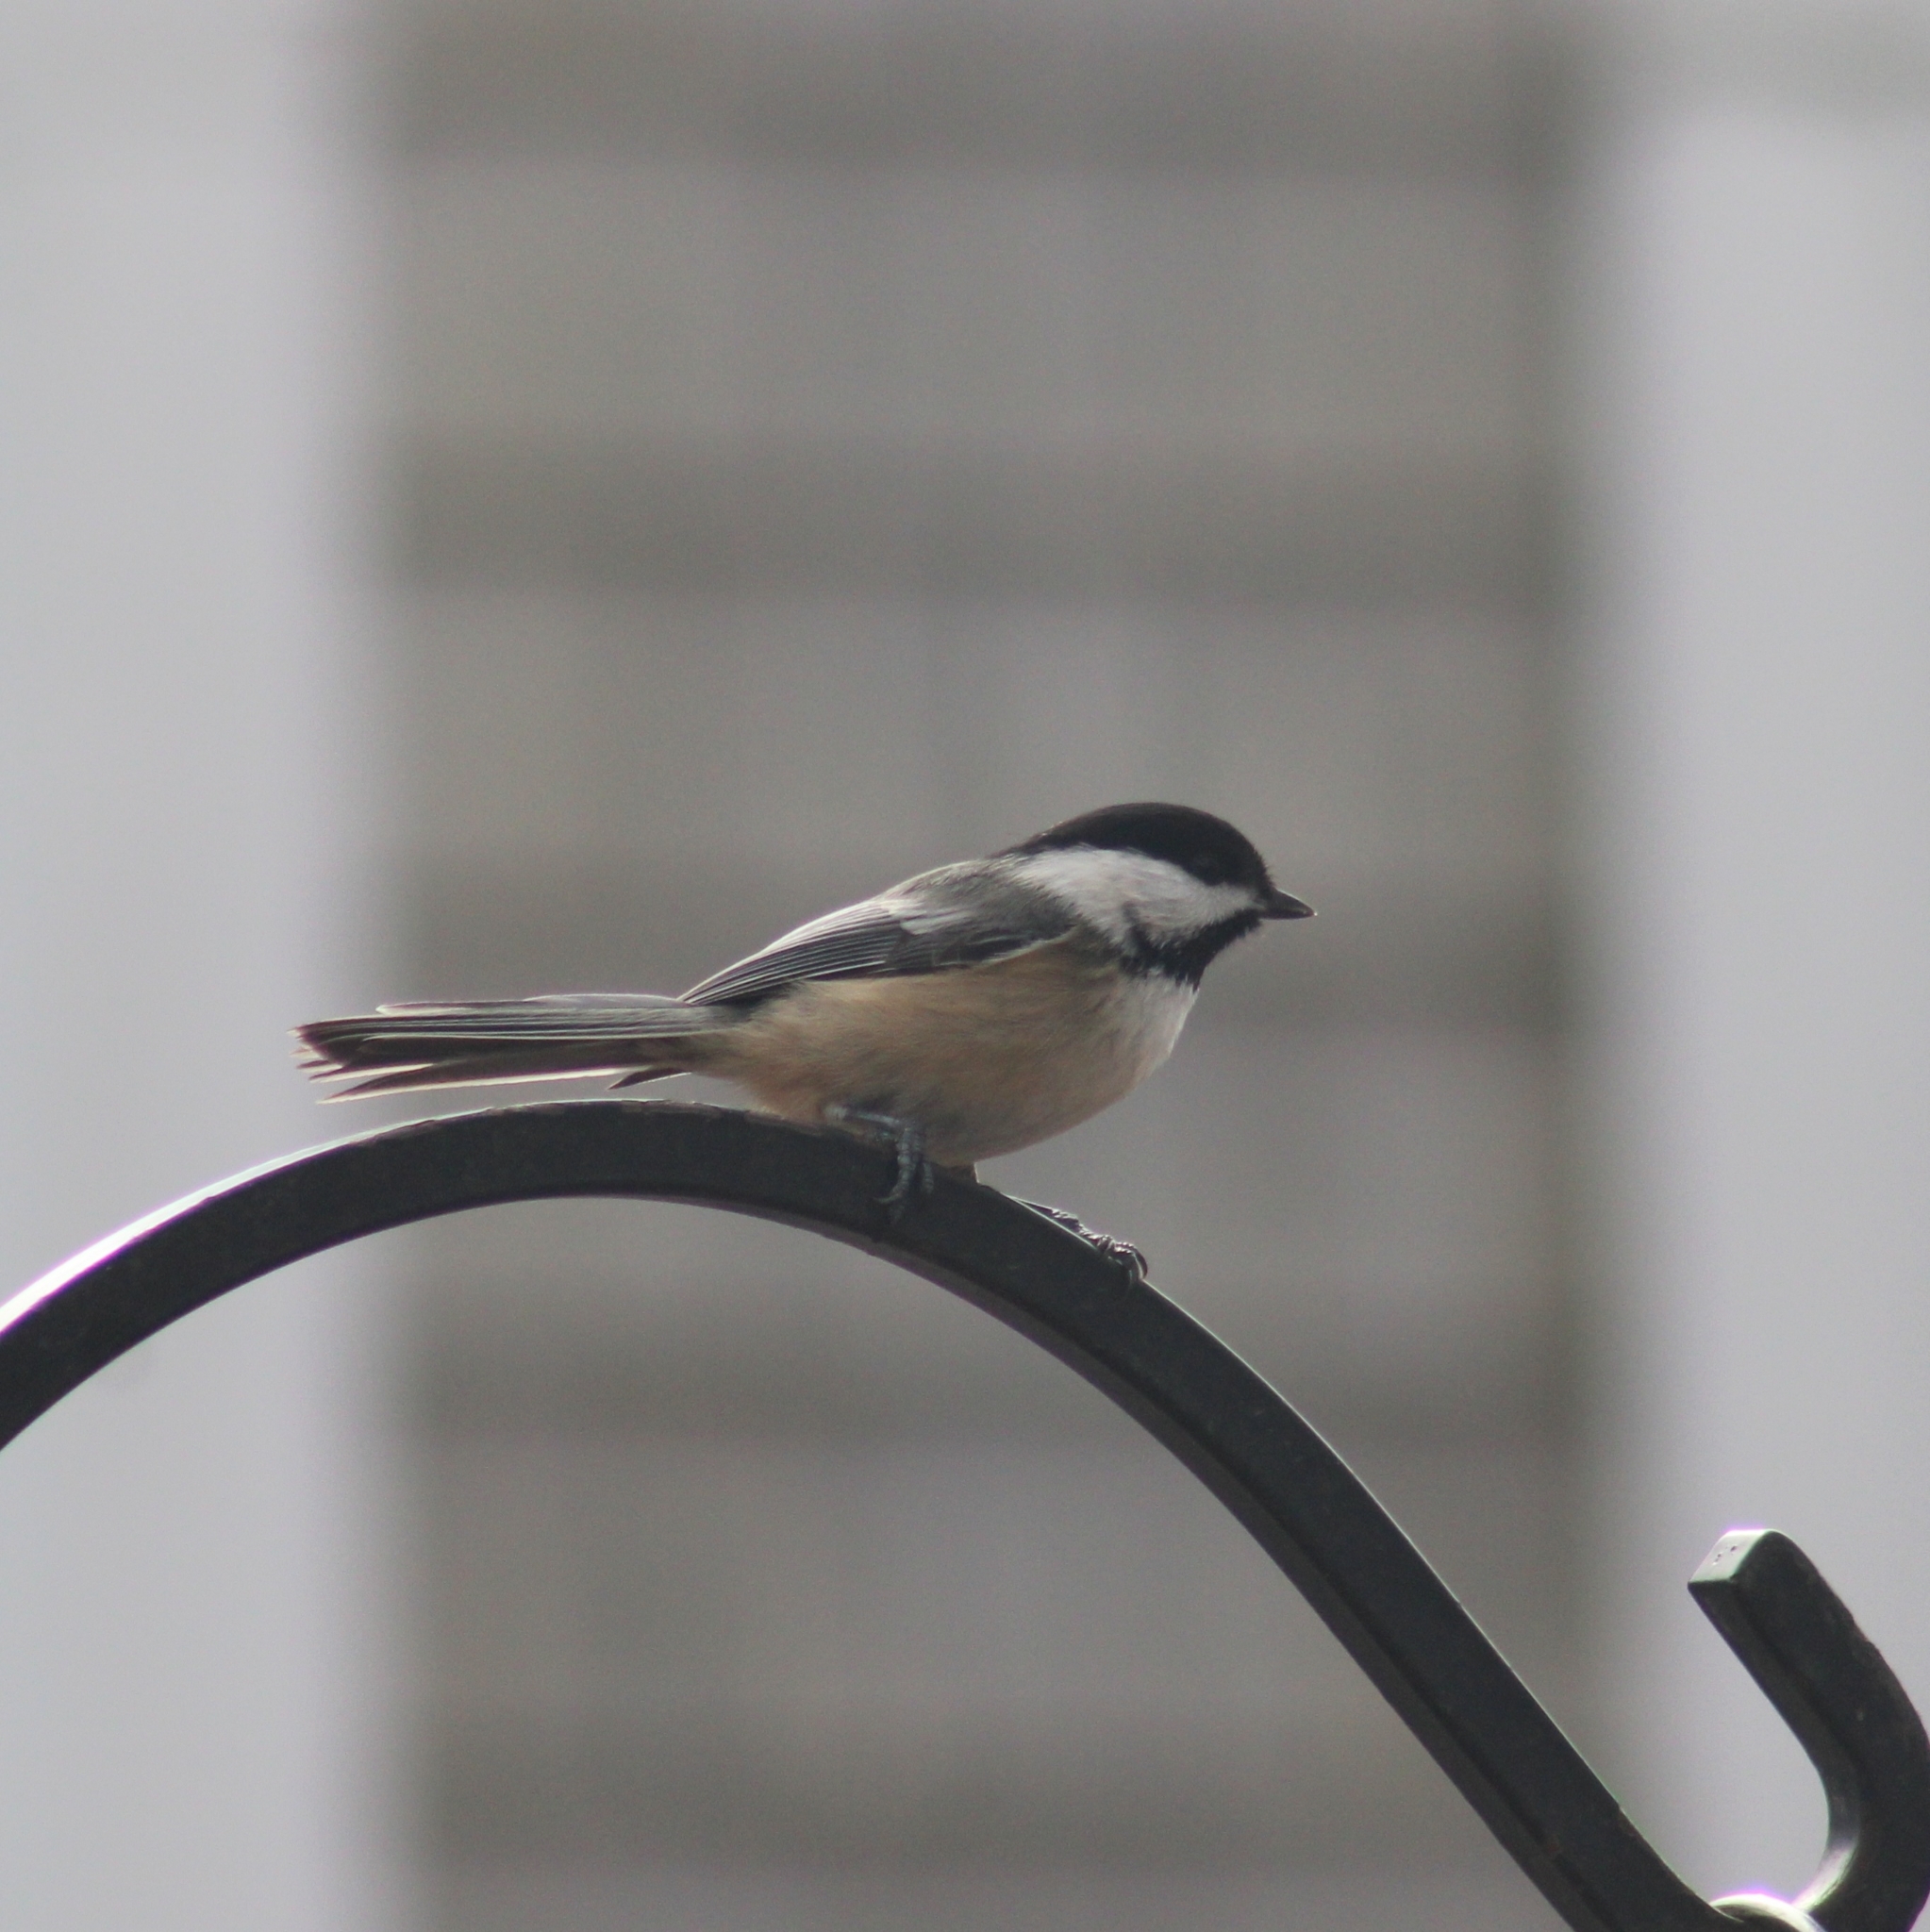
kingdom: Animalia
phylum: Chordata
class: Aves
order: Passeriformes
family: Paridae
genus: Poecile
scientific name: Poecile atricapillus
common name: Black-capped chickadee
